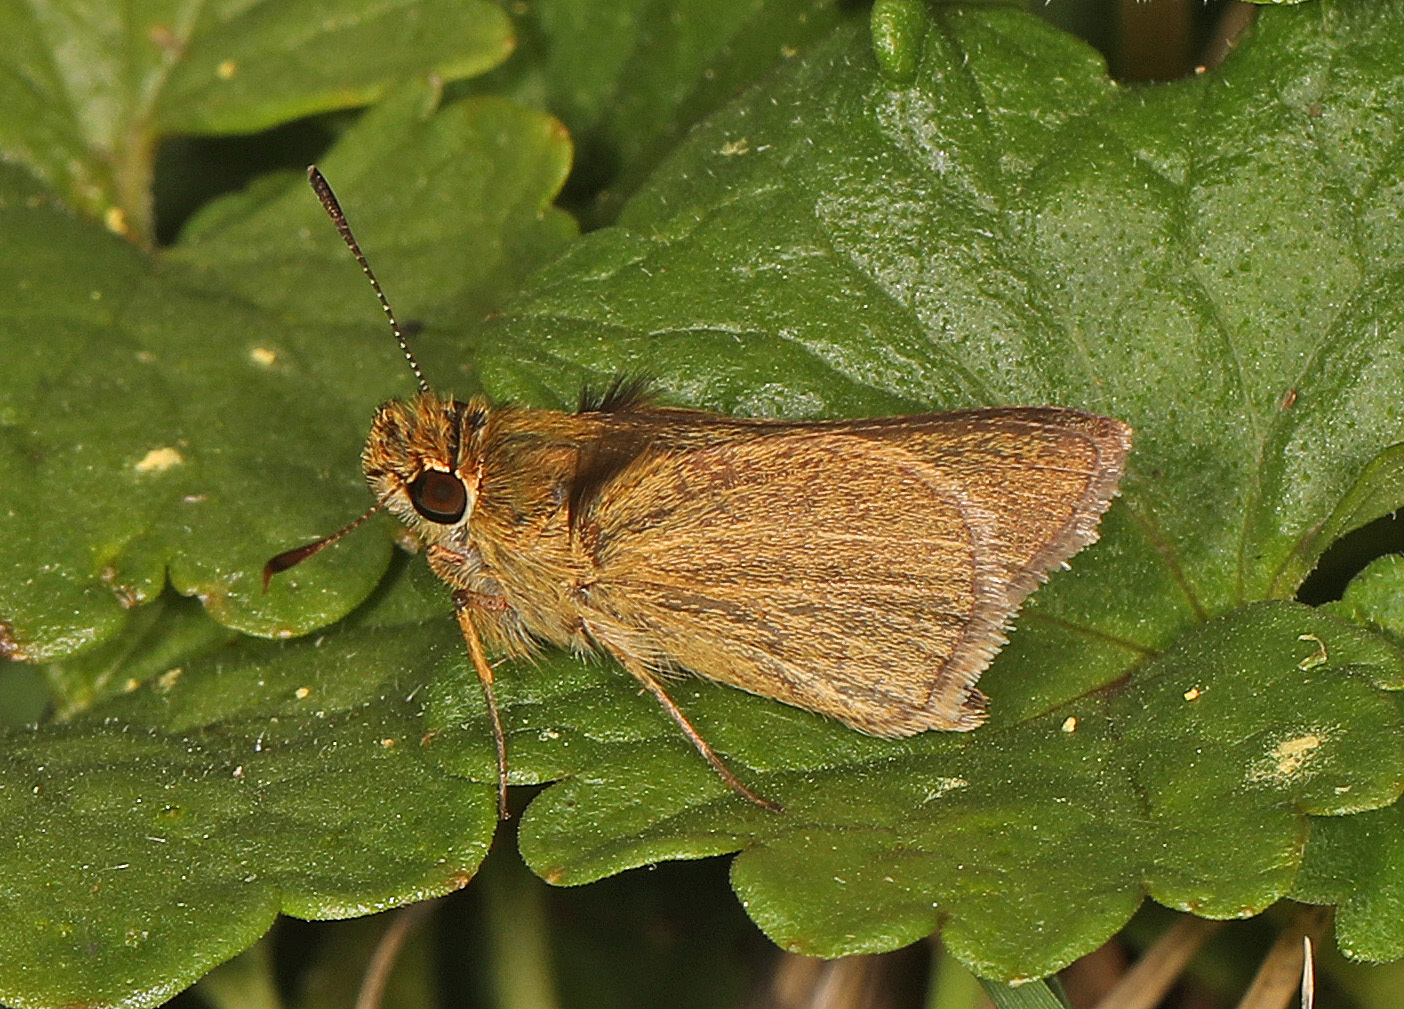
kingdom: Animalia
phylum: Arthropoda
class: Insecta
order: Lepidoptera
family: Hesperiidae
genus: Nastra
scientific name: Nastra lherminier
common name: Swarthy skipper
